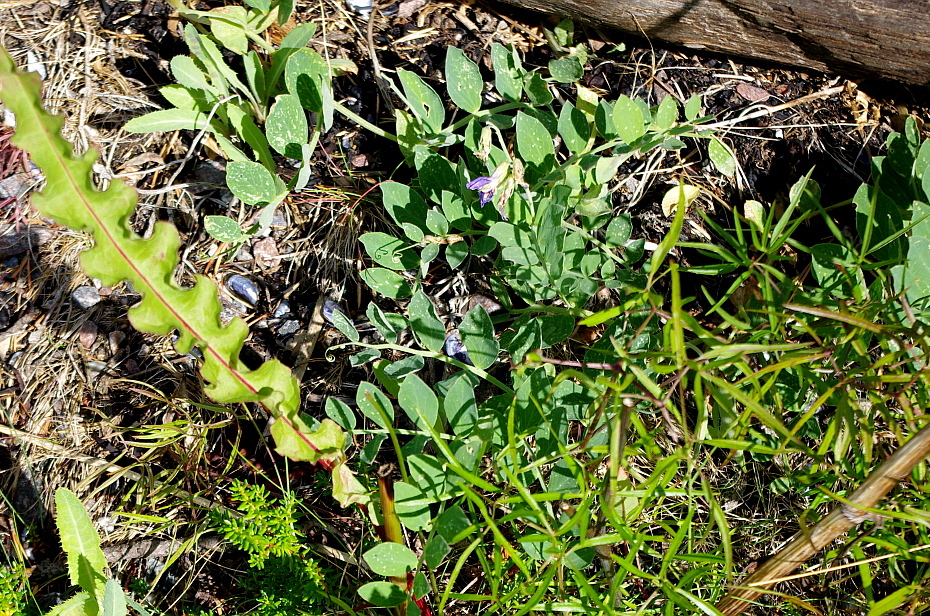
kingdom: Plantae
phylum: Tracheophyta
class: Magnoliopsida
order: Fabales
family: Fabaceae
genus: Lathyrus
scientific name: Lathyrus japonicus
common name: Sea pea
